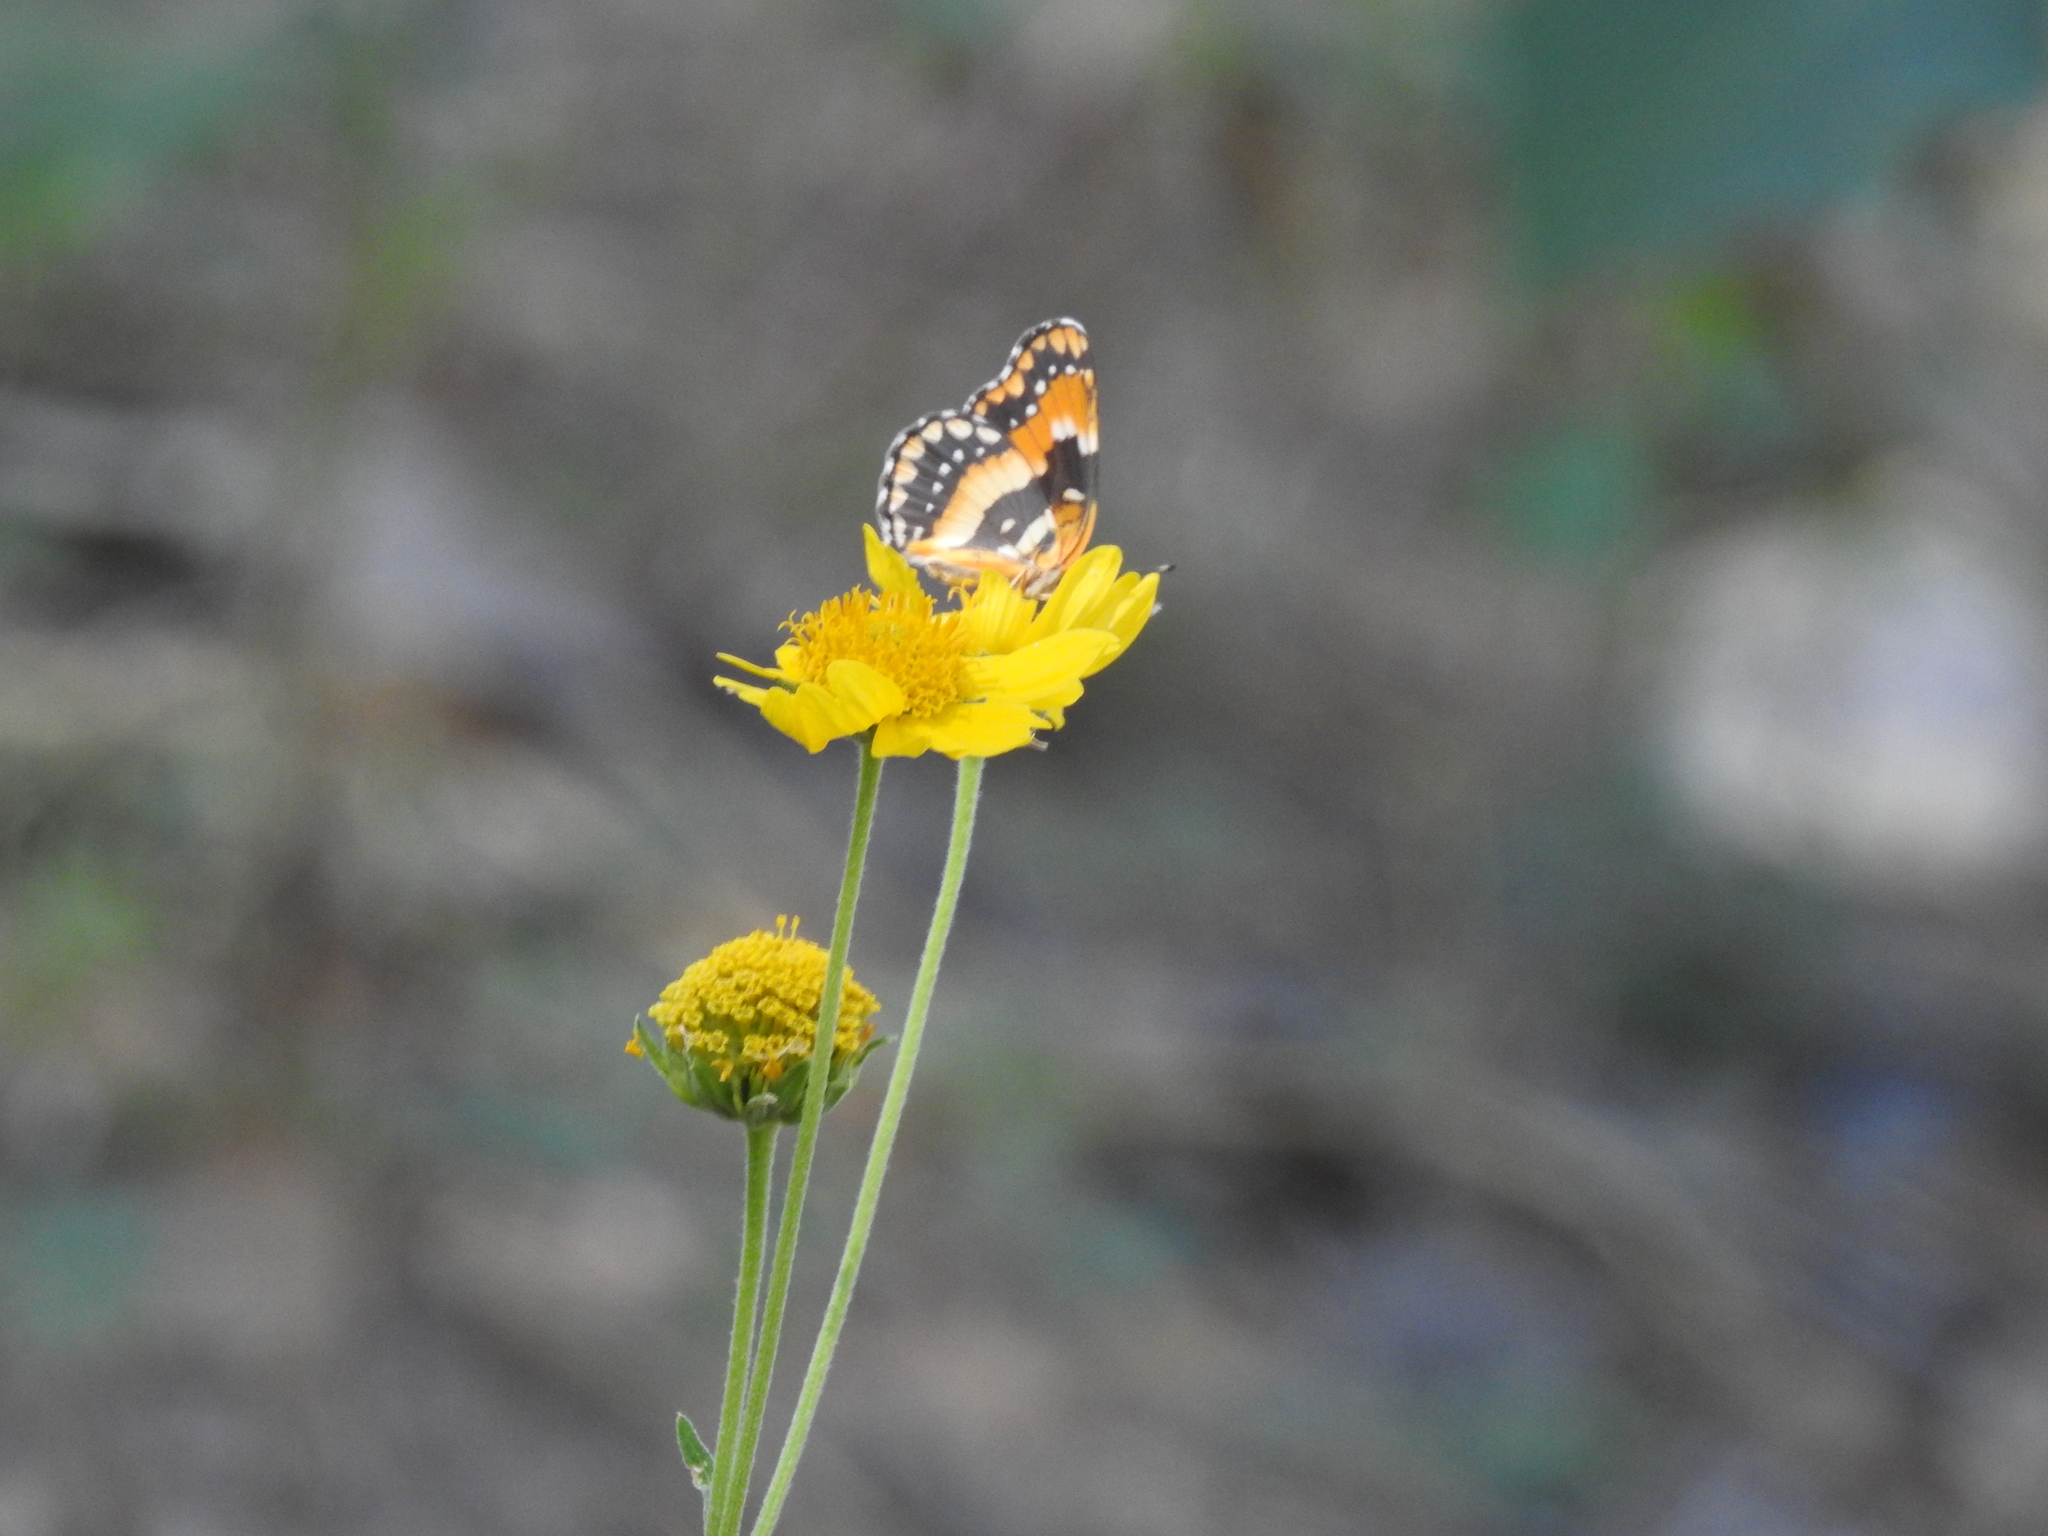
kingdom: Animalia
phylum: Arthropoda
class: Insecta
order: Lepidoptera
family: Nymphalidae
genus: Chlosyne
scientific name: Chlosyne californica
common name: California patch
